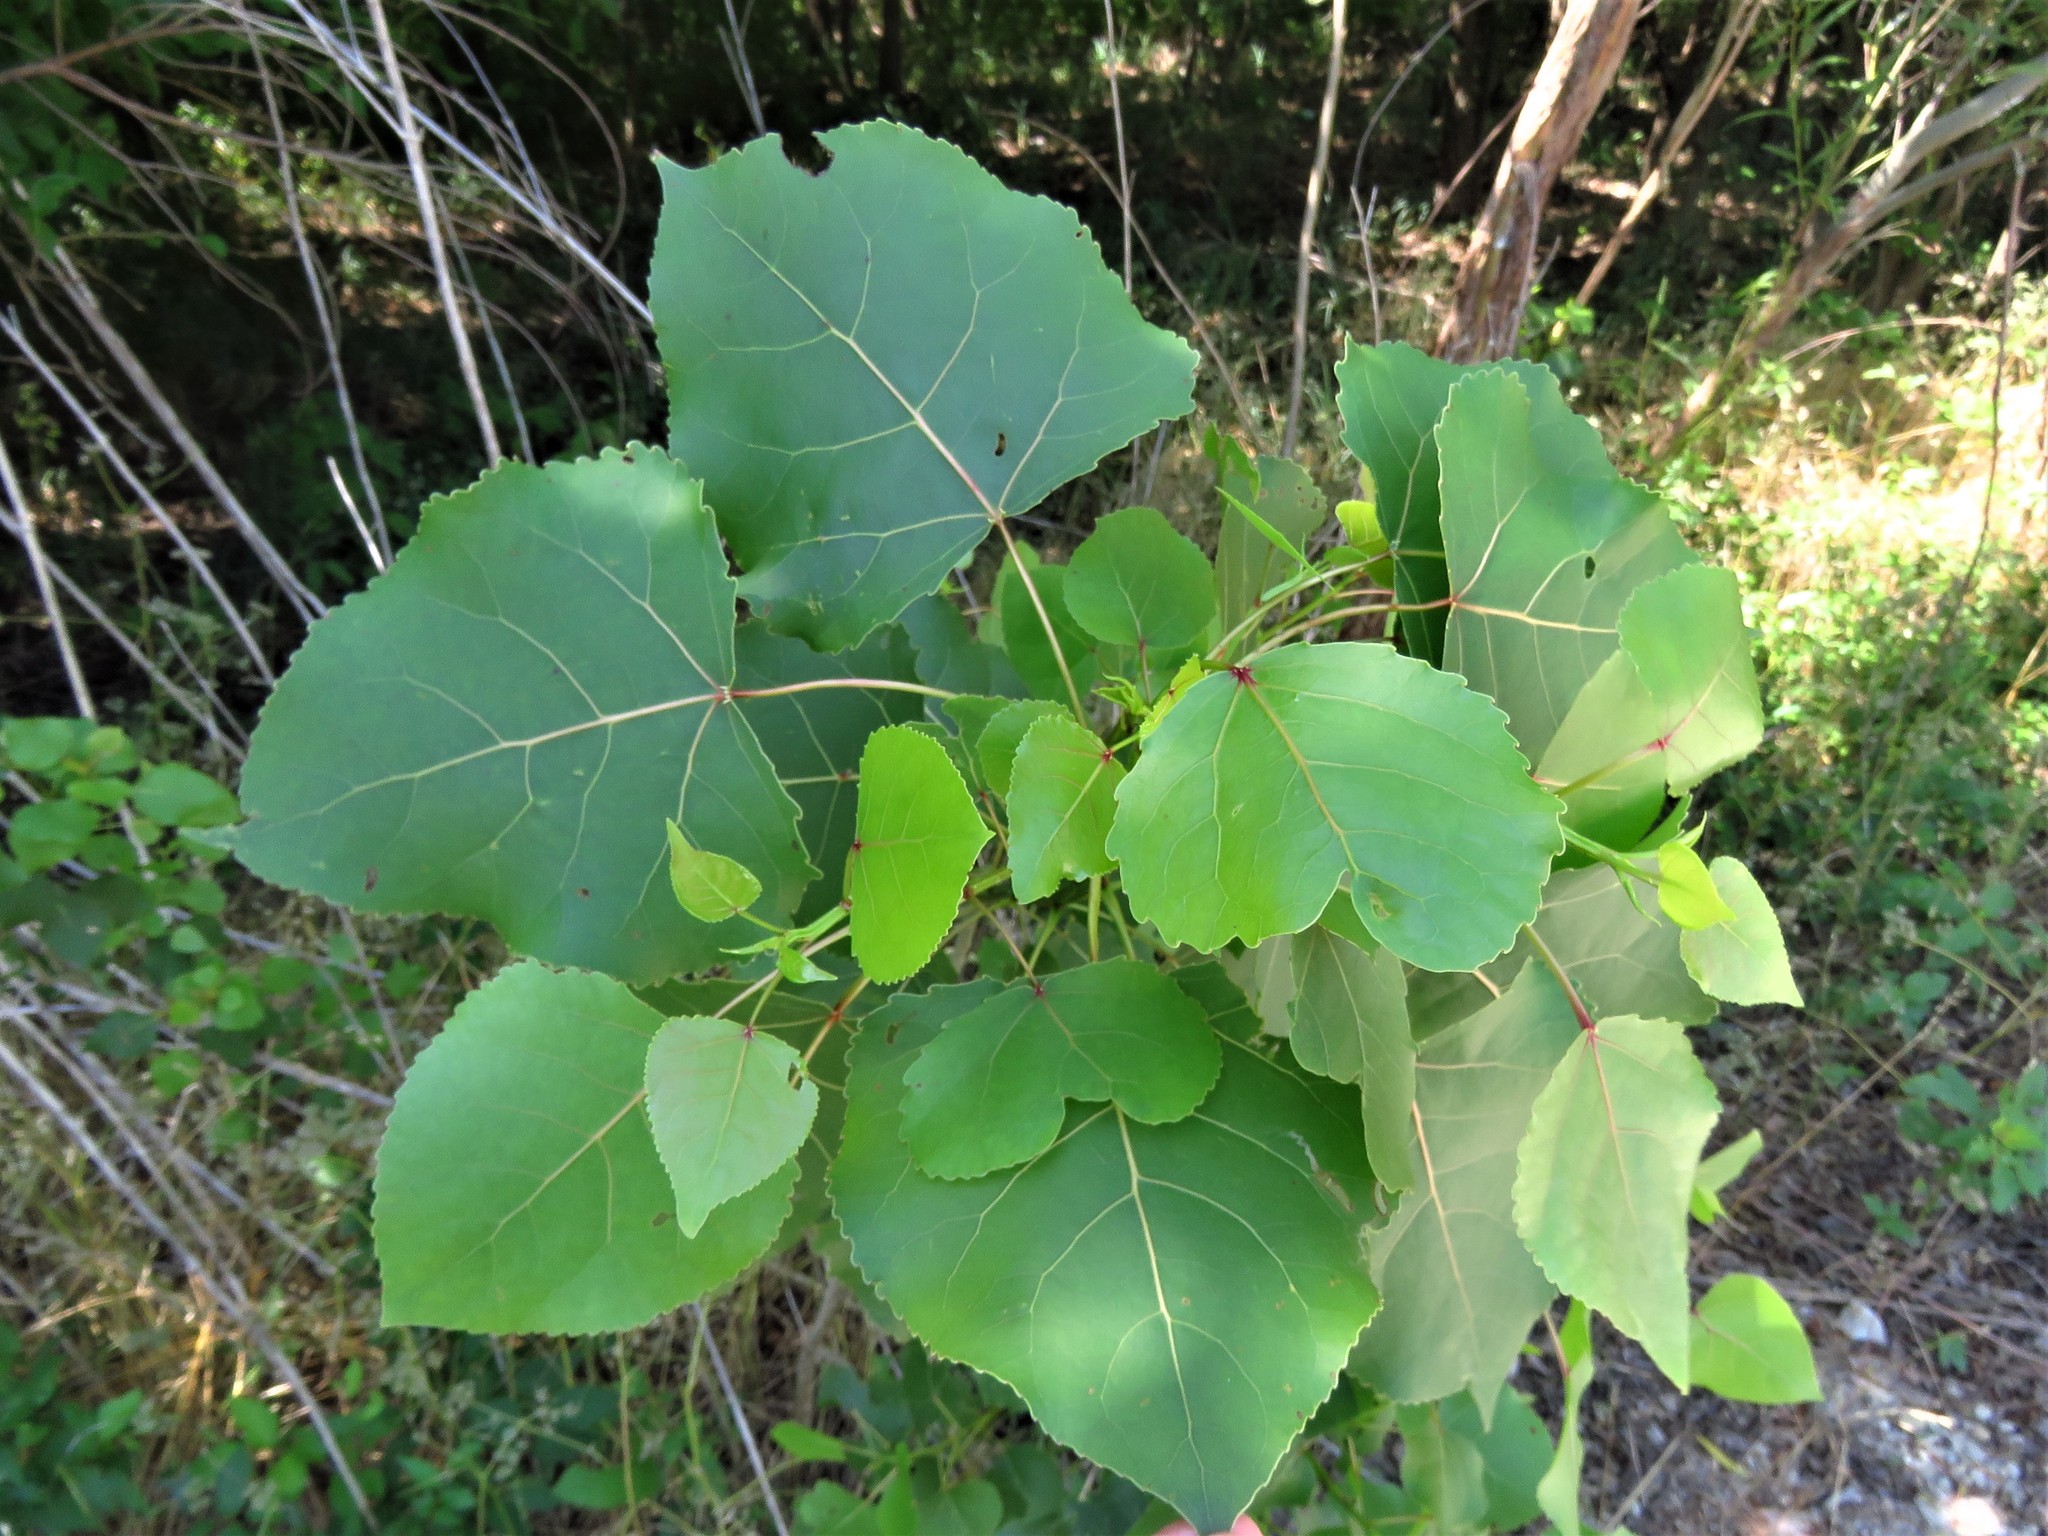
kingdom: Plantae
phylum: Tracheophyta
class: Magnoliopsida
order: Malpighiales
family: Salicaceae
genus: Populus
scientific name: Populus deltoides
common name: Eastern cottonwood
